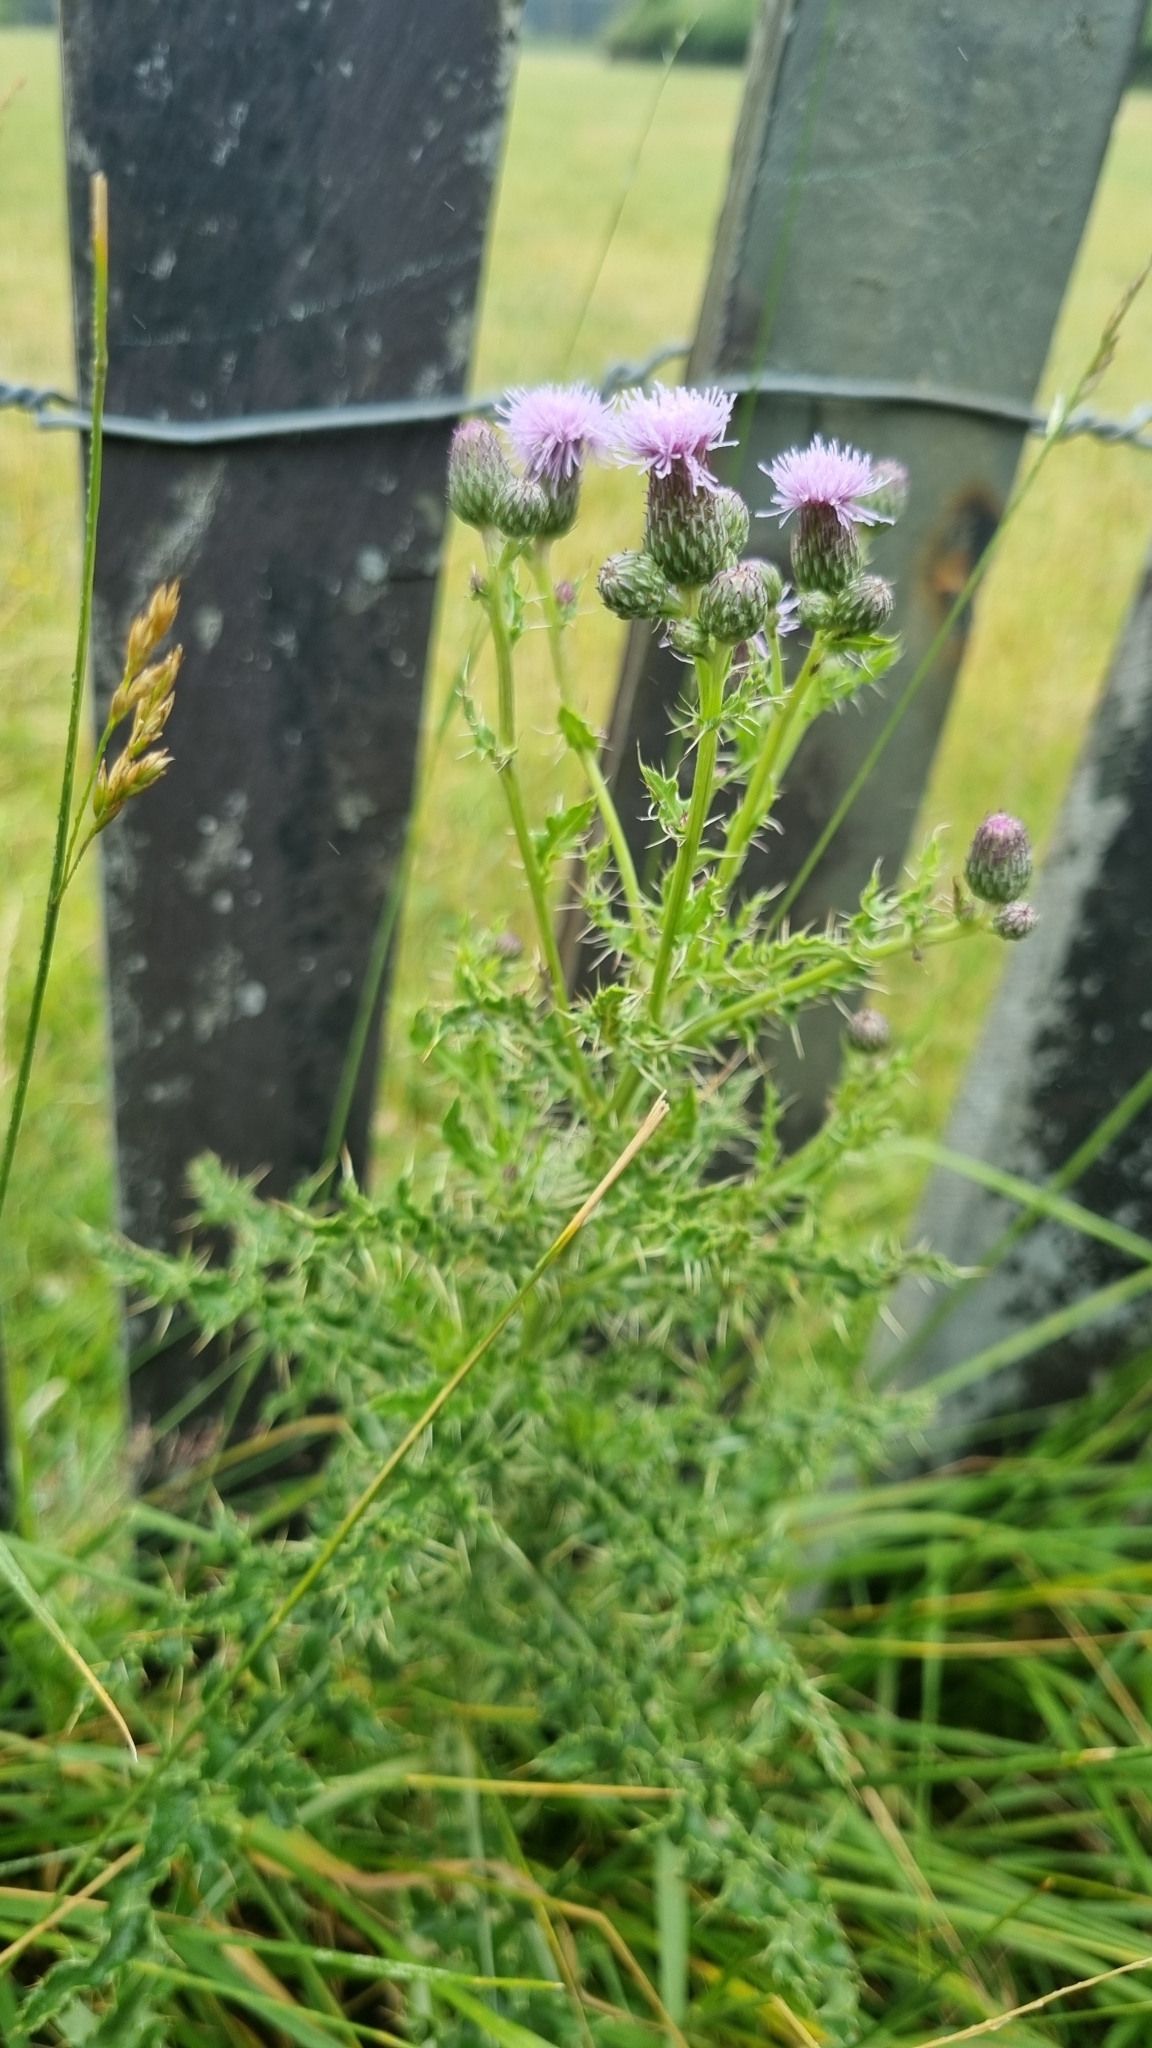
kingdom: Plantae
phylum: Tracheophyta
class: Magnoliopsida
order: Asterales
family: Asteraceae
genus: Cirsium
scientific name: Cirsium arvense
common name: Creeping thistle
